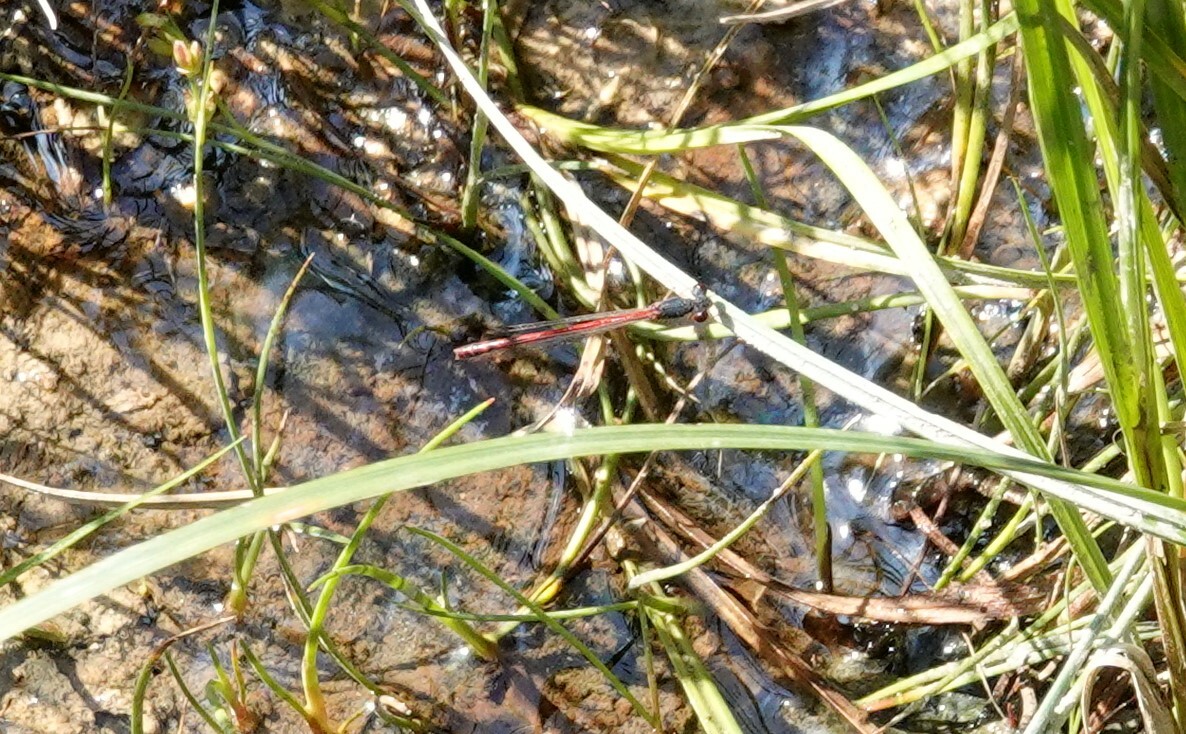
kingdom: Animalia
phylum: Arthropoda
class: Insecta
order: Odonata
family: Coenagrionidae
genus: Amphiagrion
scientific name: Amphiagrion saucium
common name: Eastern red damsel
